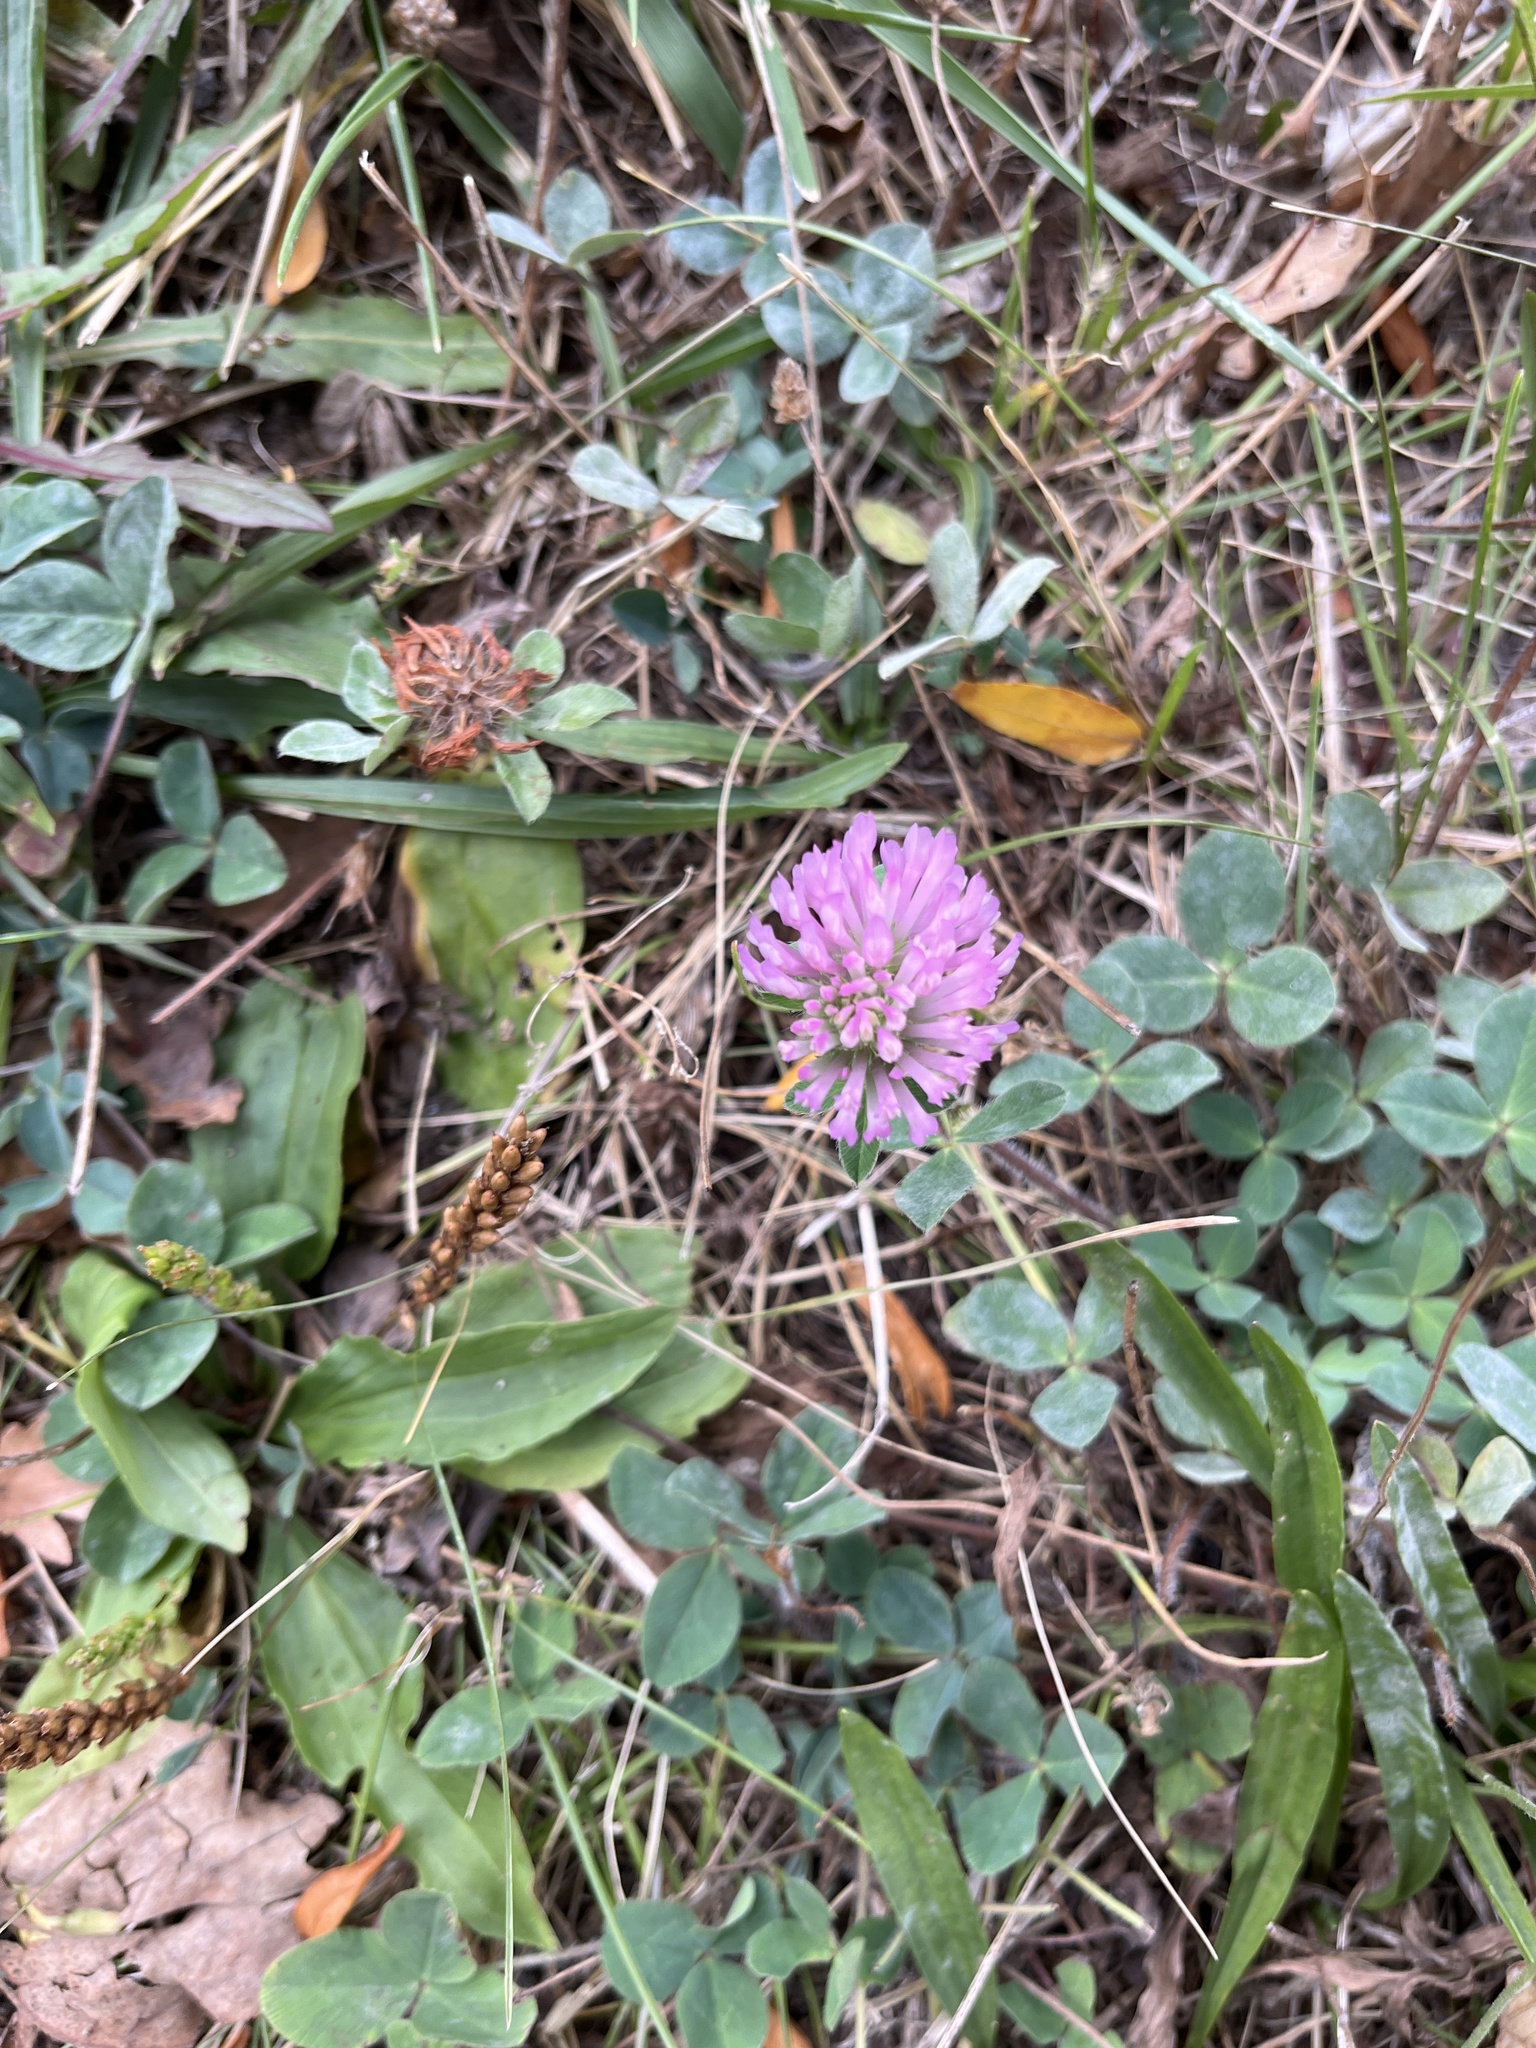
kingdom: Plantae
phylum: Tracheophyta
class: Magnoliopsida
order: Fabales
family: Fabaceae
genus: Trifolium
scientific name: Trifolium pratense
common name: Red clover
